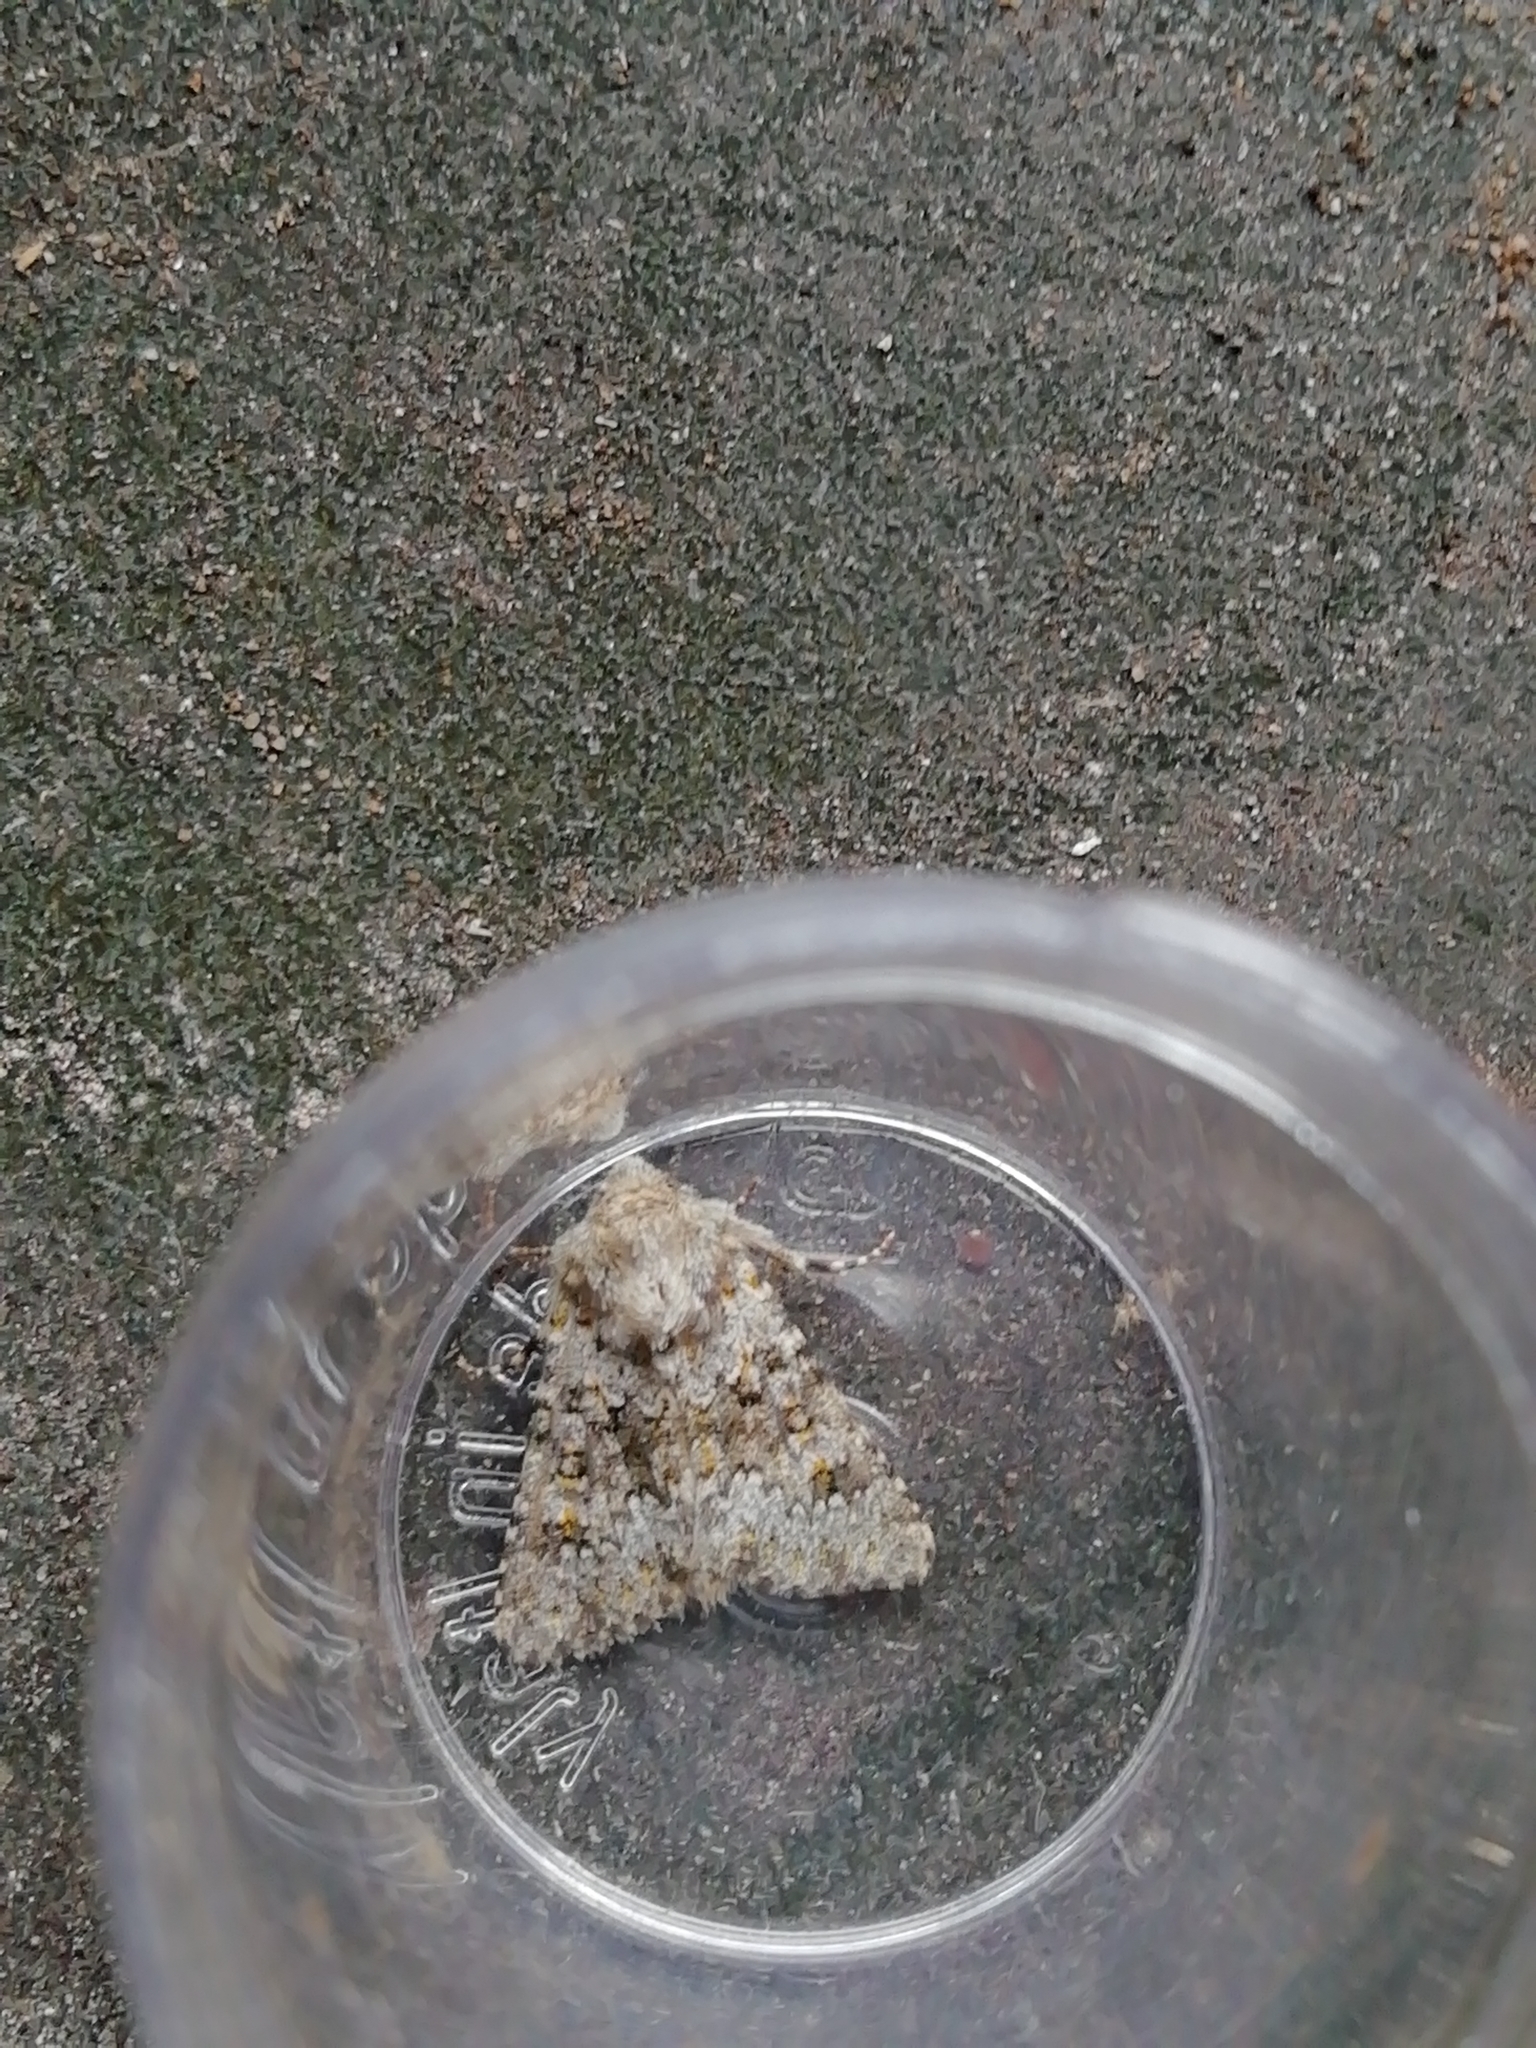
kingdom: Animalia
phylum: Arthropoda
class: Insecta
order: Lepidoptera
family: Noctuidae
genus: Hecatera
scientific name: Hecatera dysodea
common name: Small ranunculus
